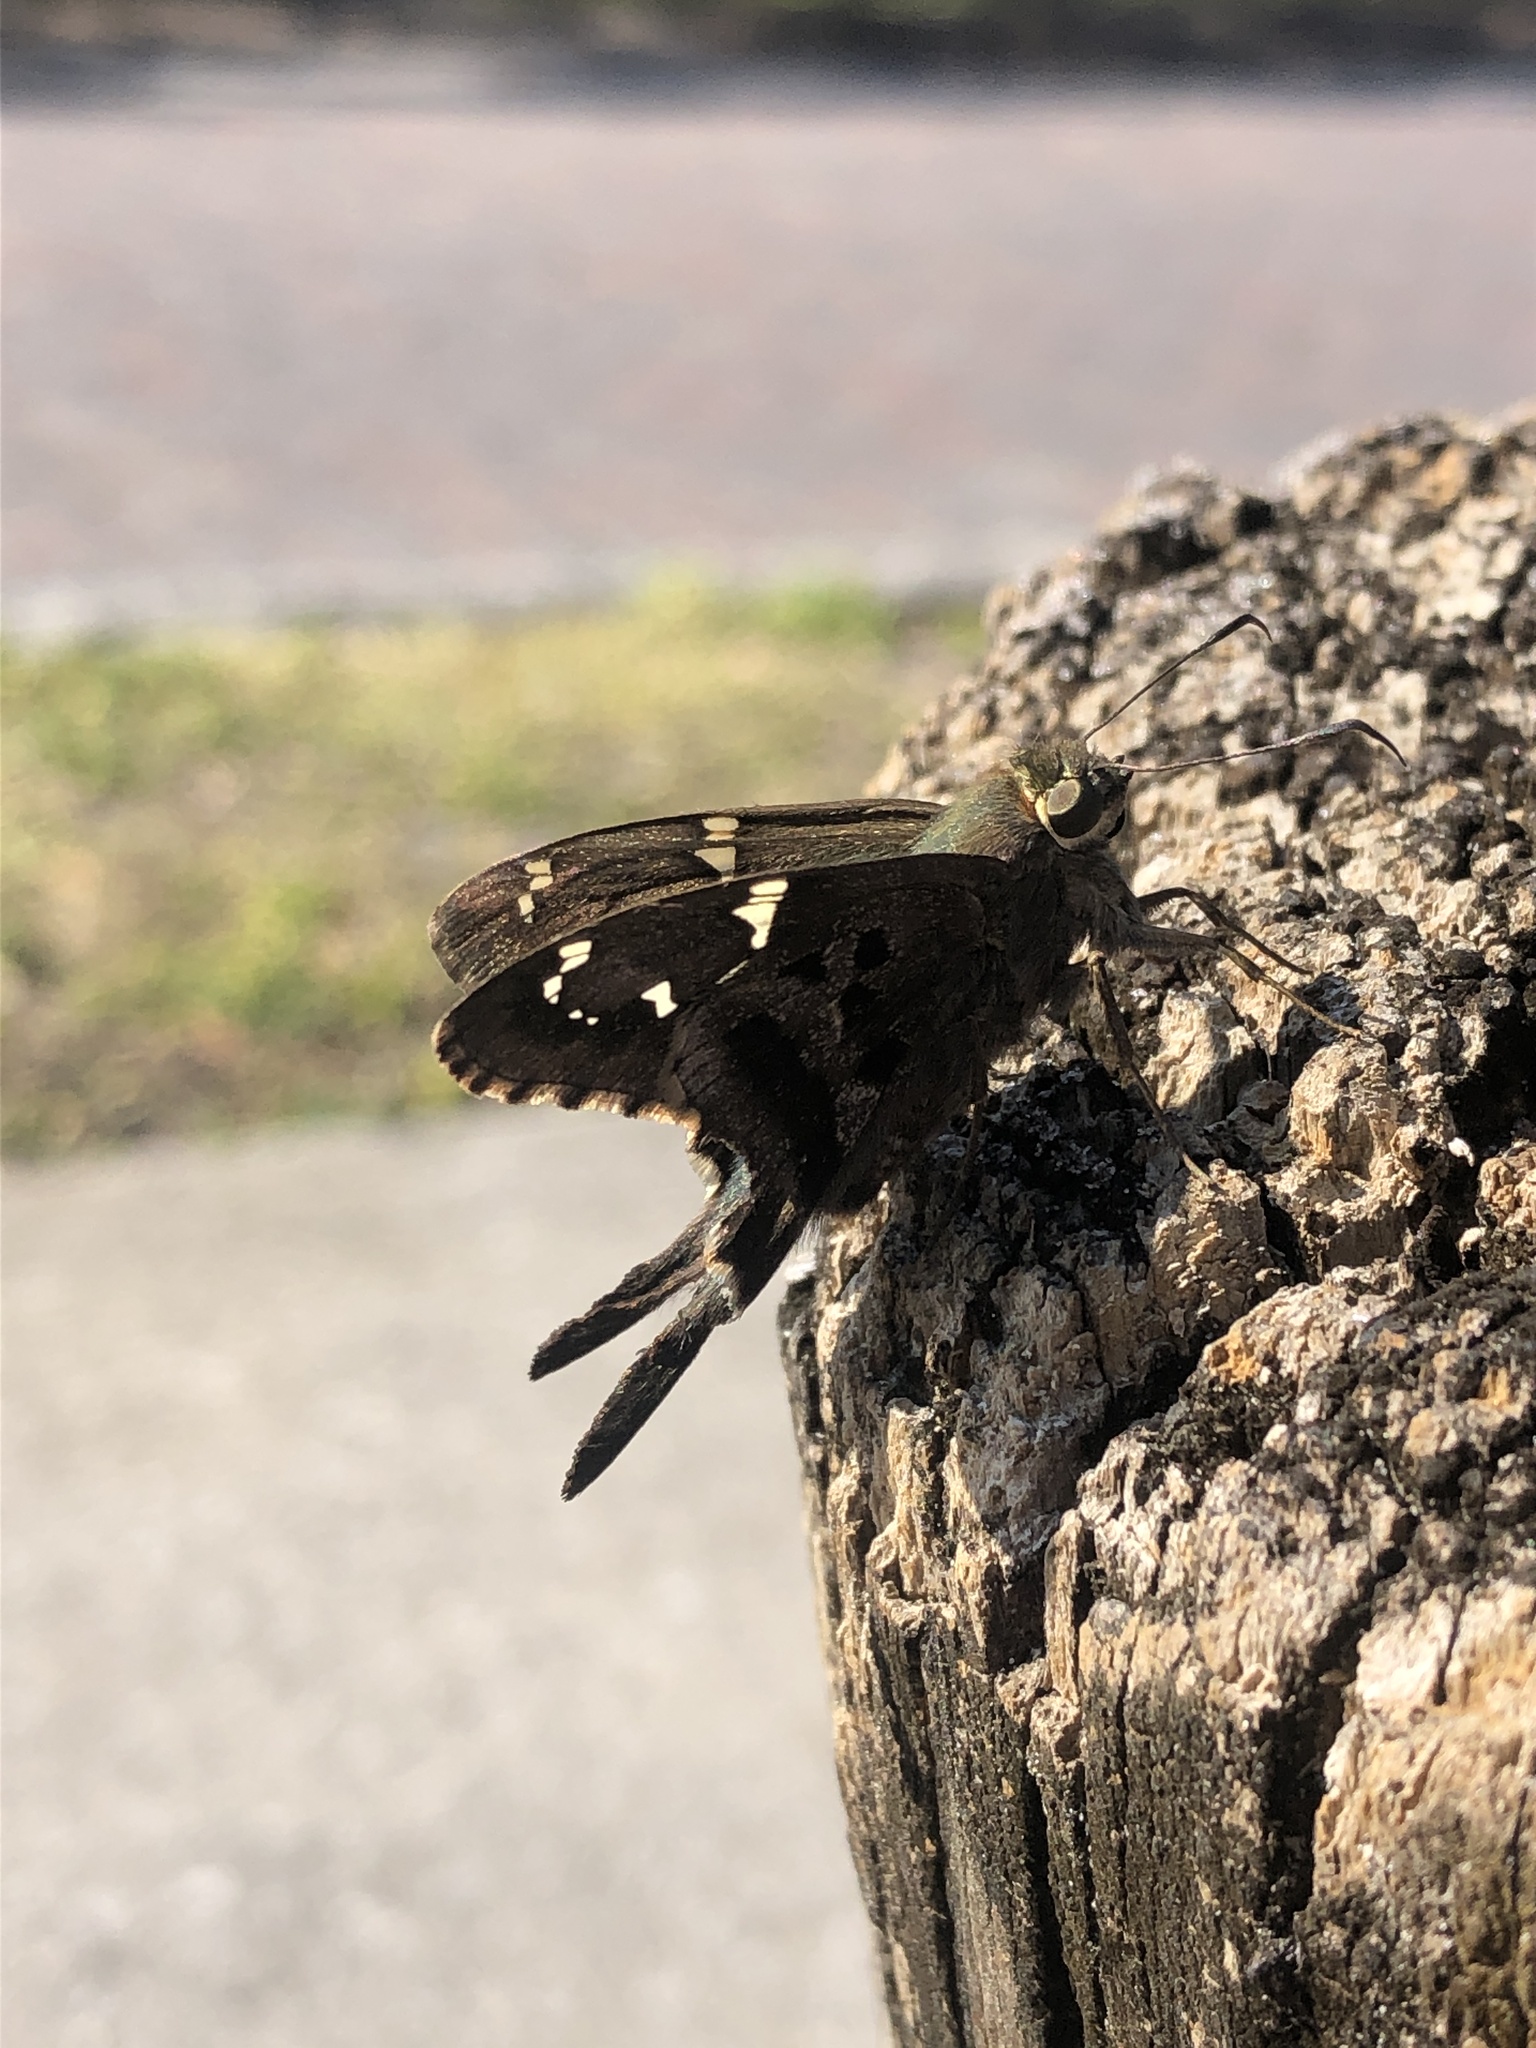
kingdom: Animalia
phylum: Arthropoda
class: Insecta
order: Lepidoptera
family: Hesperiidae
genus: Urbanus
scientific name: Urbanus proteus
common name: Long-tailed skipper
